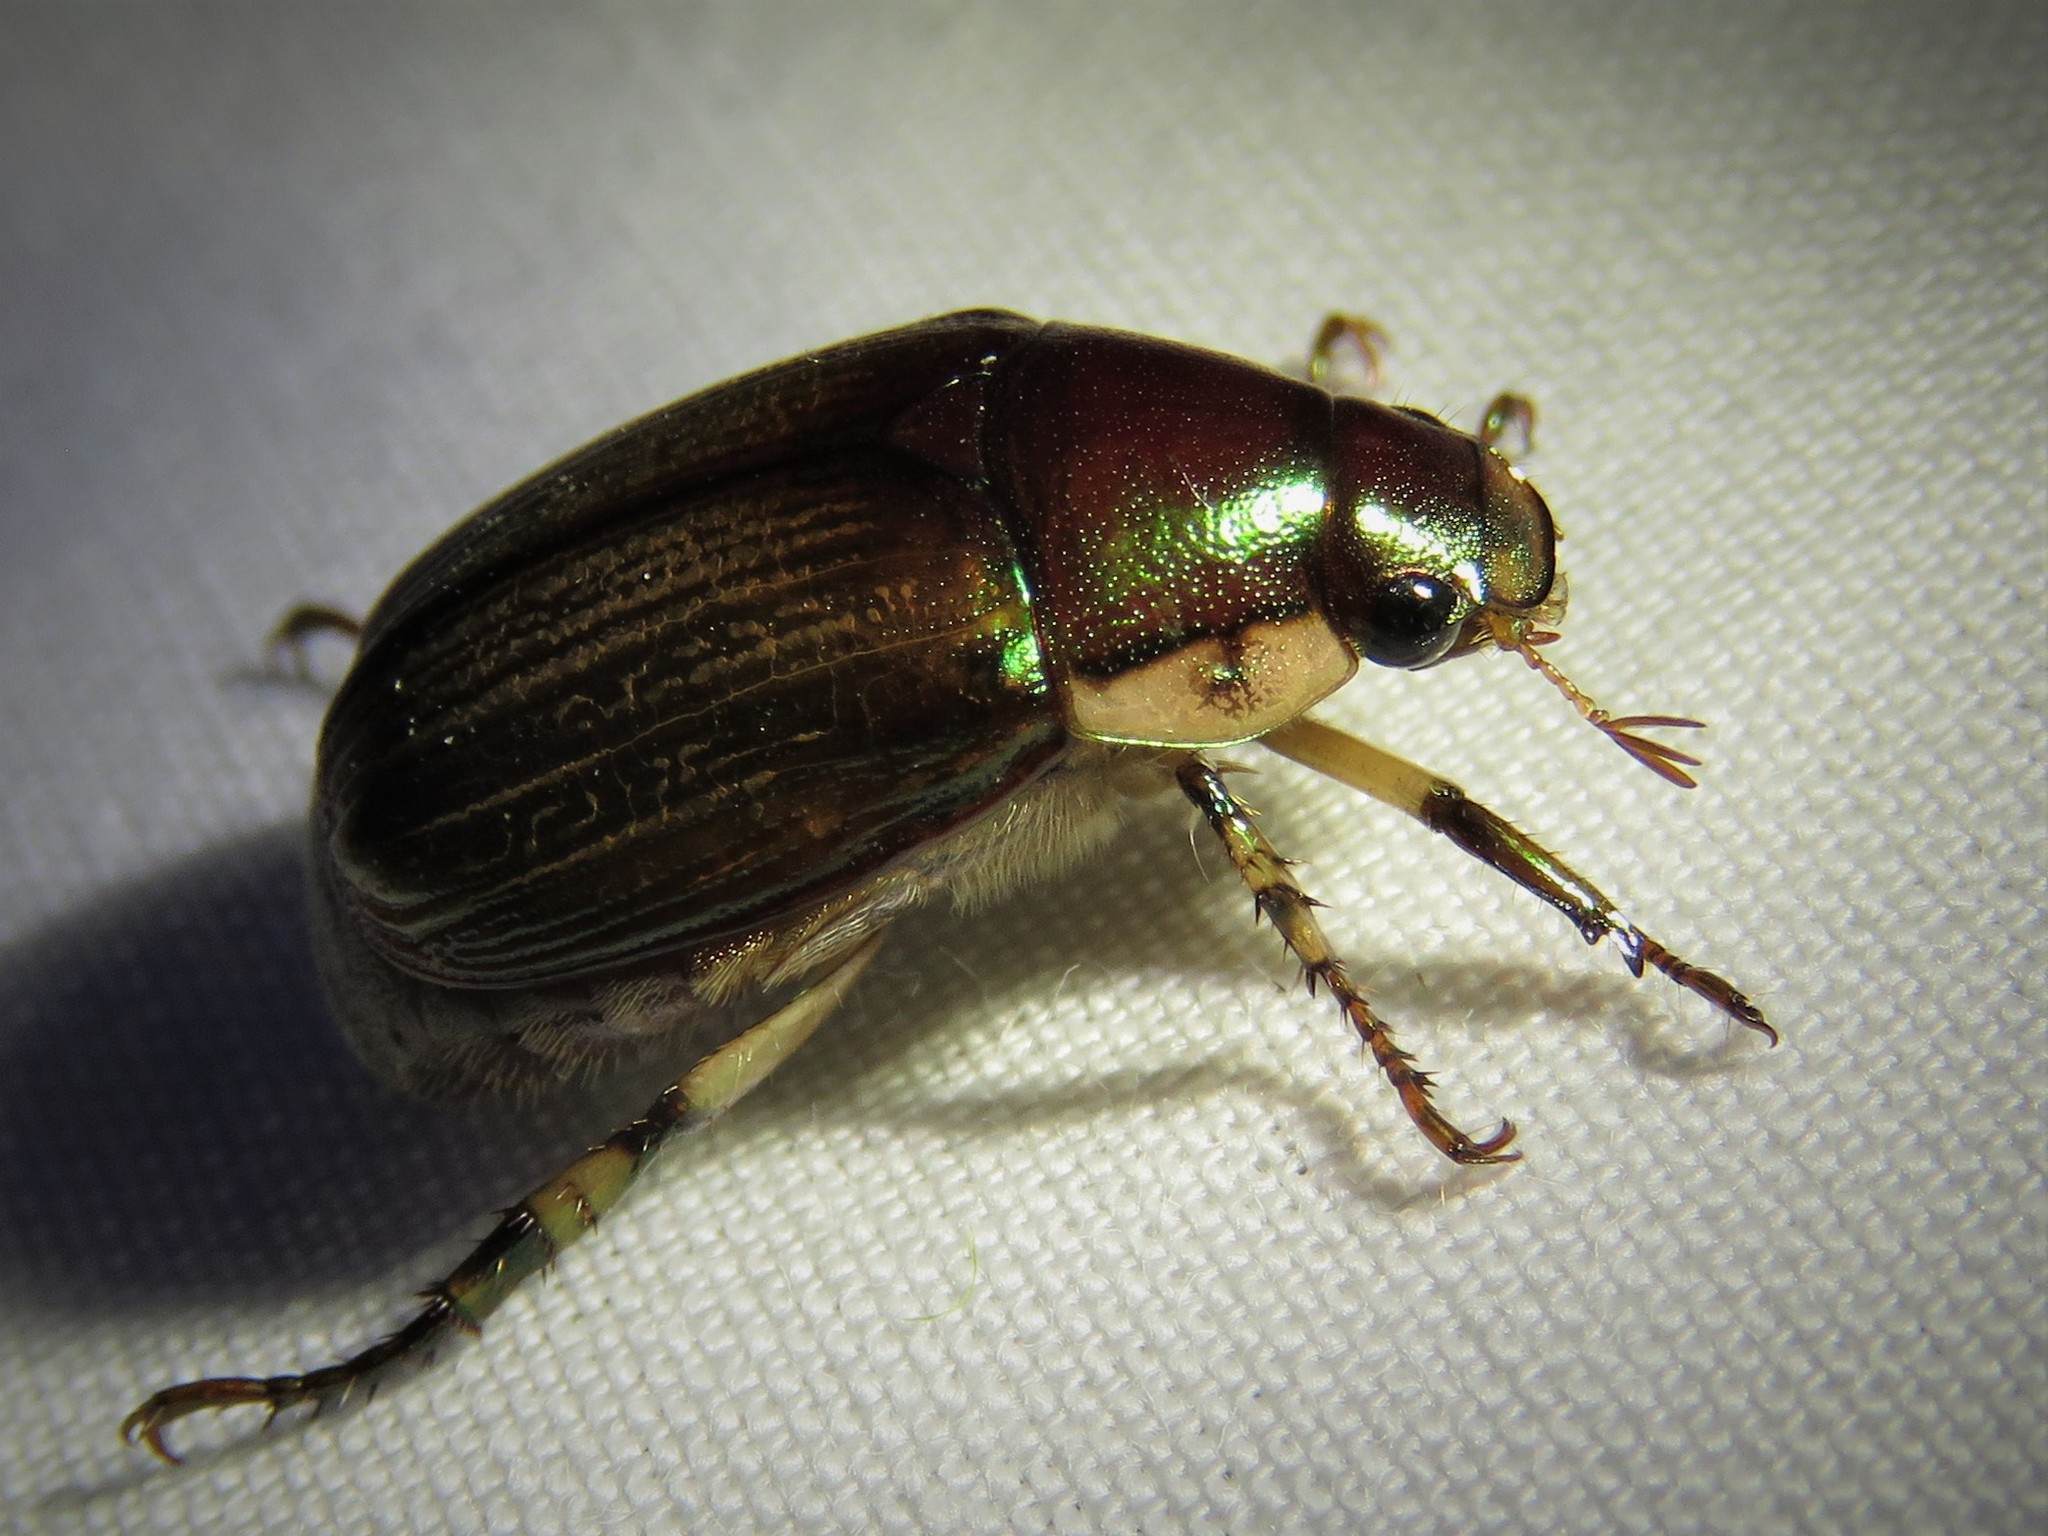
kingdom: Animalia
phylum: Arthropoda
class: Insecta
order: Coleoptera
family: Scarabaeidae
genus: Callistethus
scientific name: Callistethus marginatus
